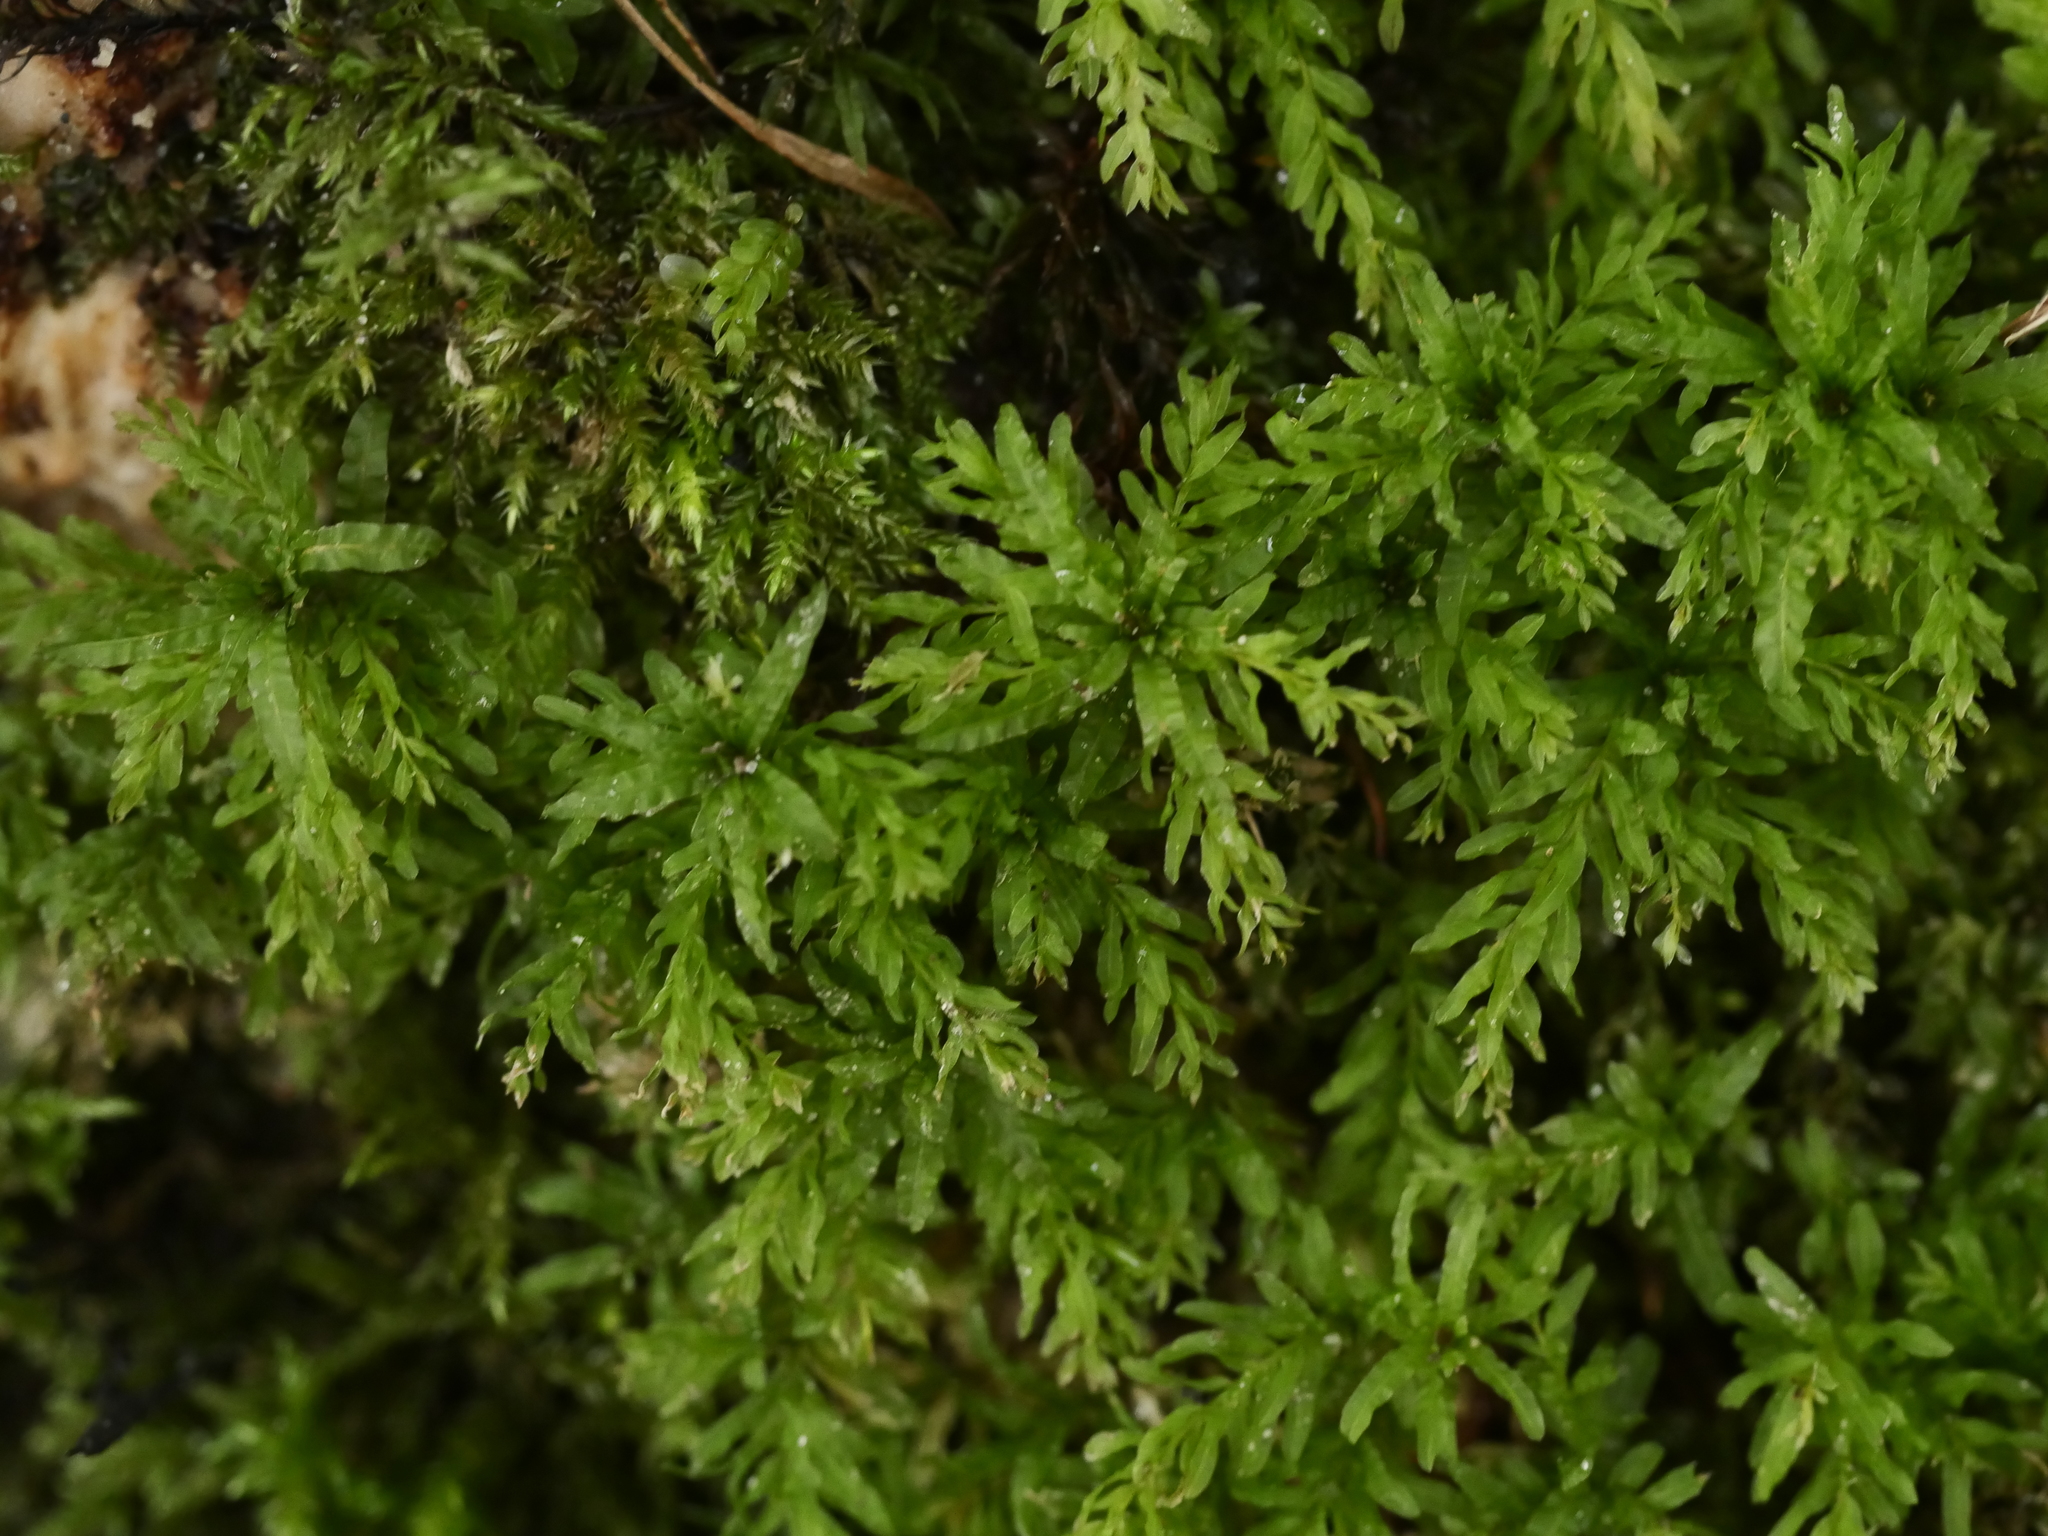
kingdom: Plantae
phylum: Bryophyta
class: Bryopsida
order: Bryales
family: Mniaceae
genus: Plagiomnium
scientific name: Plagiomnium undulatum
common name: Hart's-tongue thyme-moss
